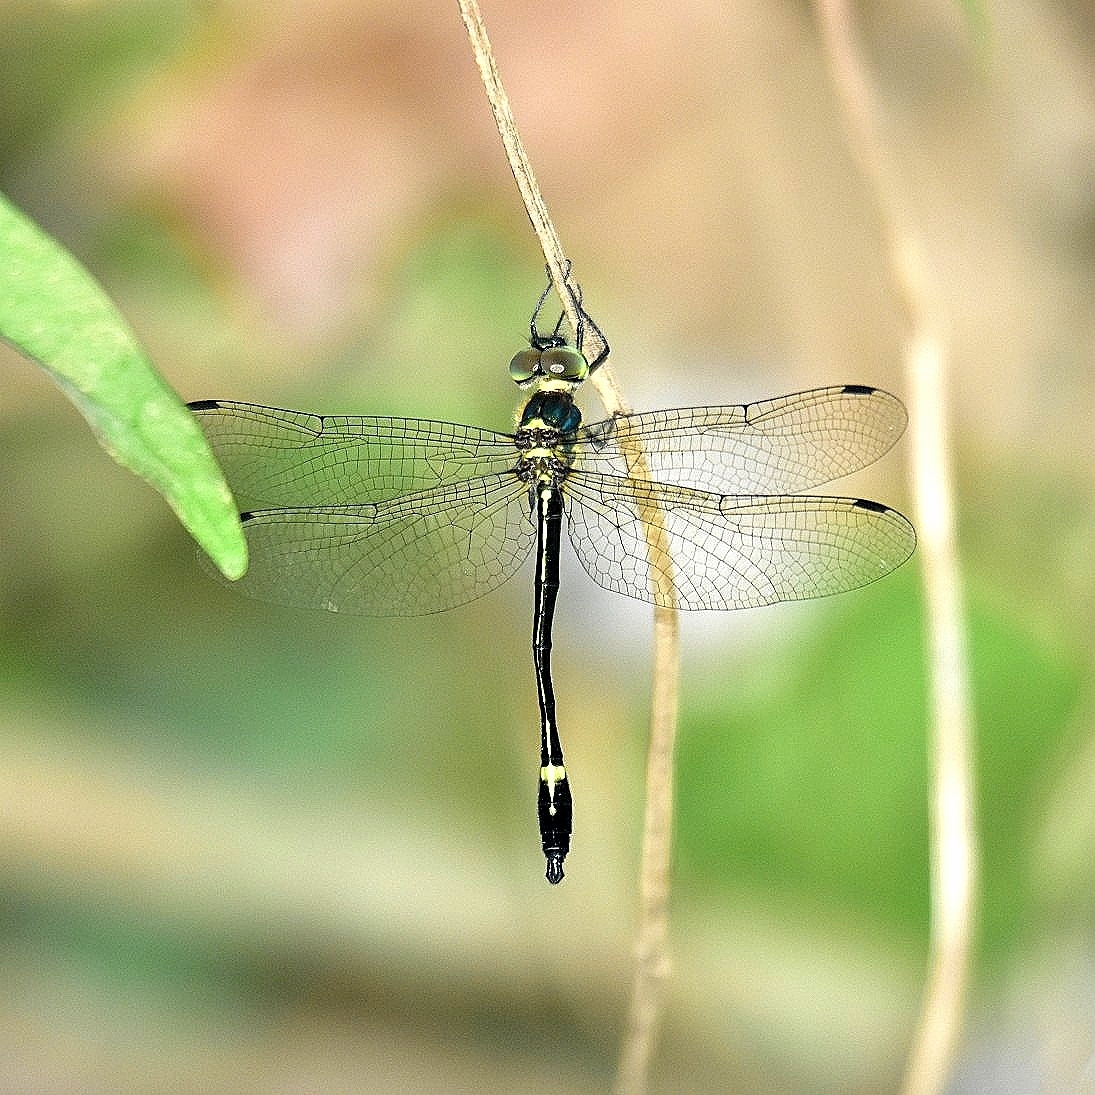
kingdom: Animalia
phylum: Arthropoda
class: Insecta
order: Odonata
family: Corduliidae
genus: Macromidia
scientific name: Macromidia donaldi
